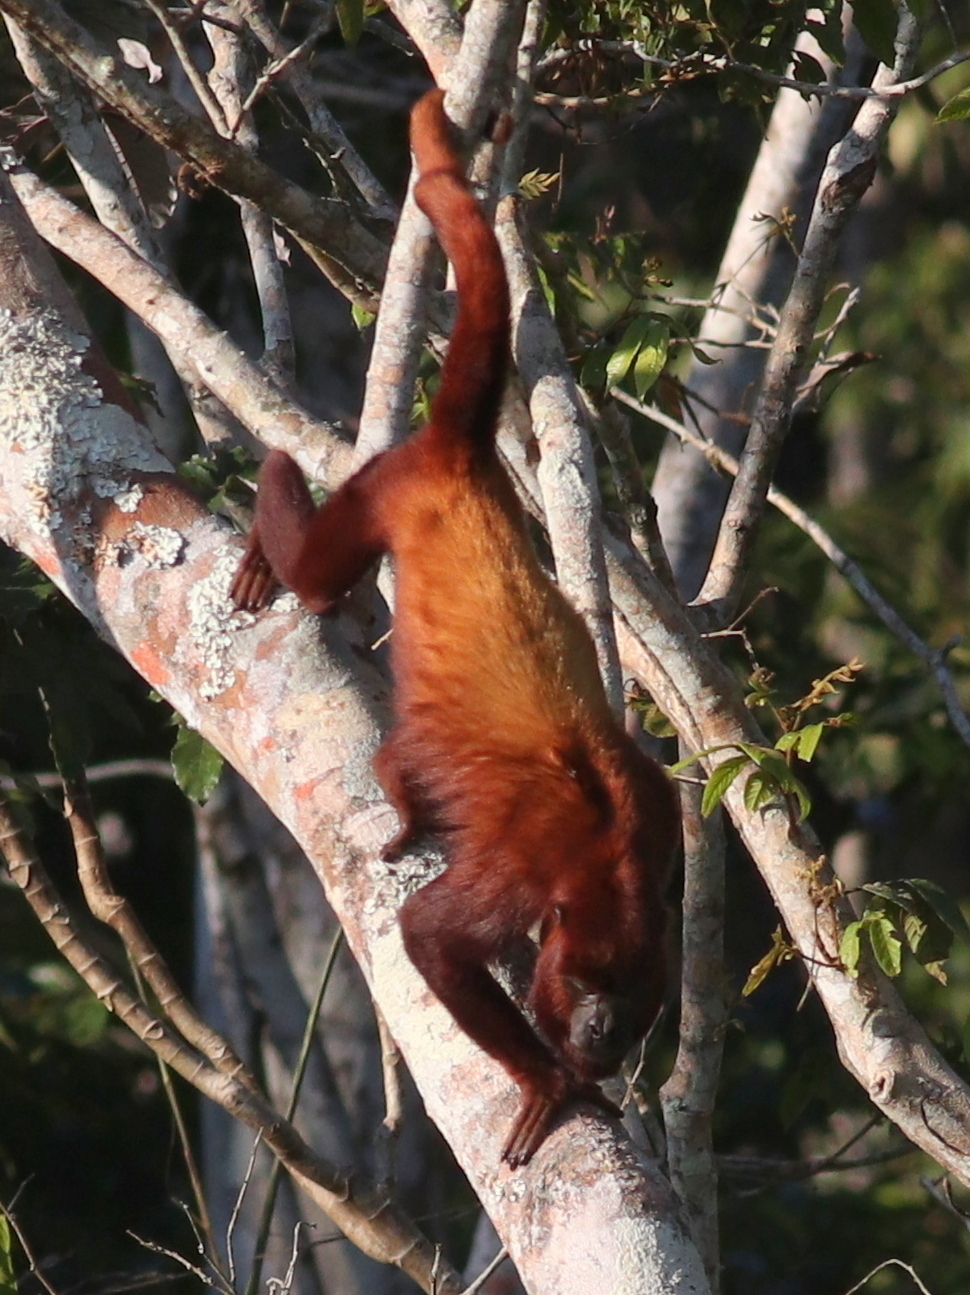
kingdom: Animalia
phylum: Chordata
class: Mammalia
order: Primates
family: Atelidae
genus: Alouatta
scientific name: Alouatta seniculus
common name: Venezuelan red howler
